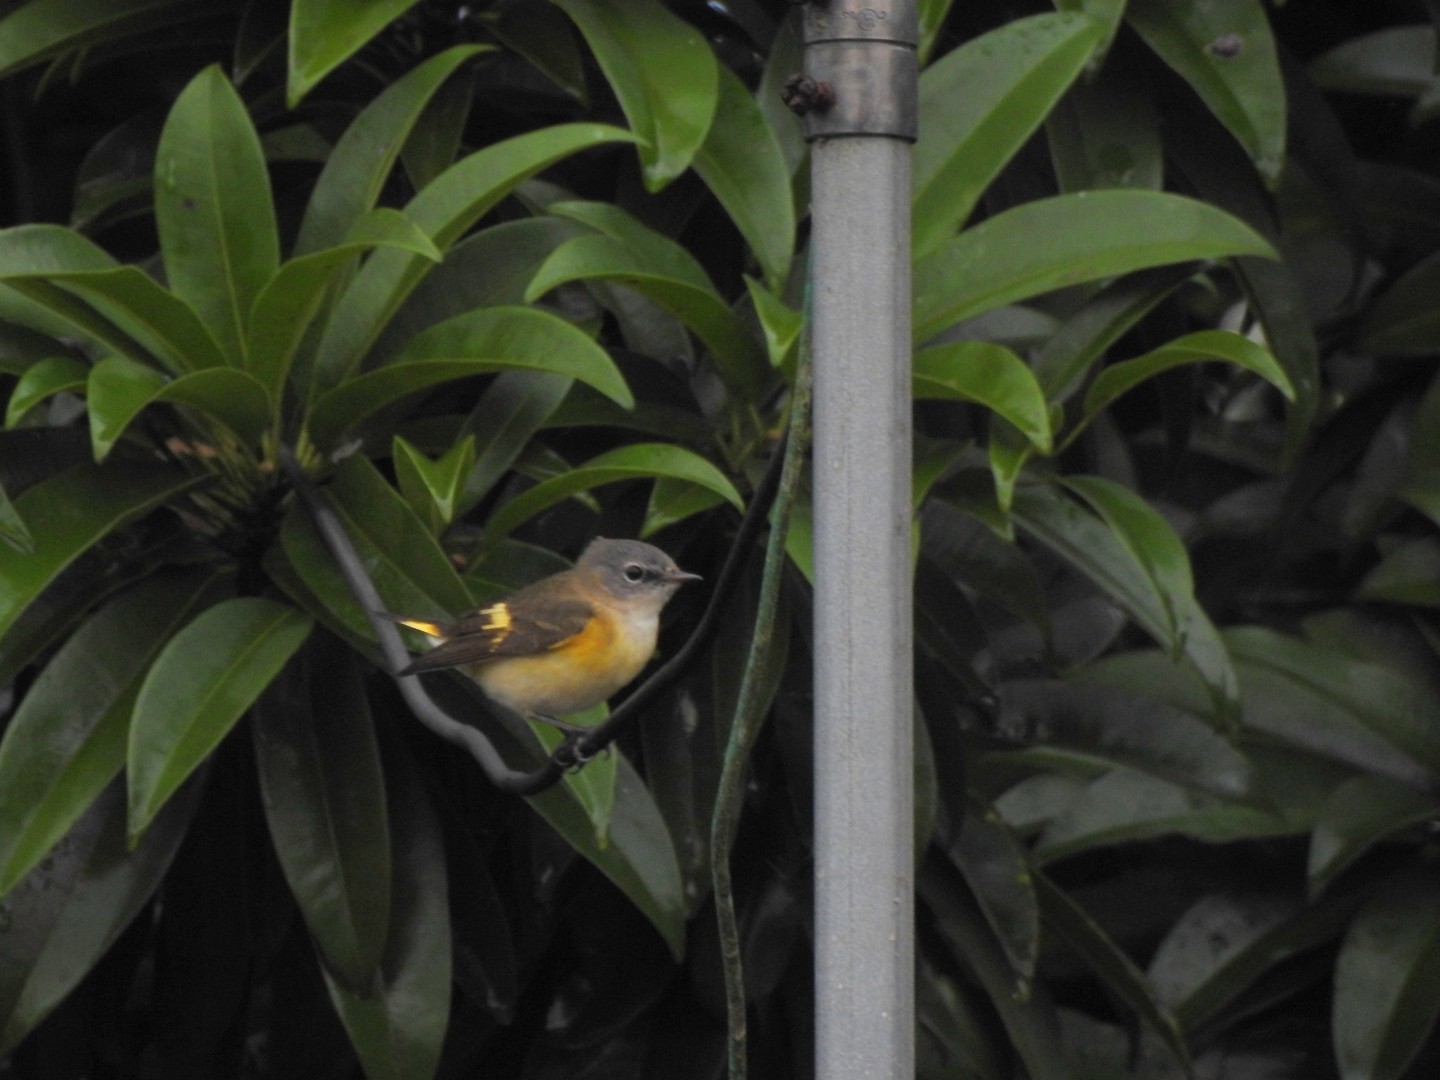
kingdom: Animalia
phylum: Chordata
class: Aves
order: Passeriformes
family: Parulidae
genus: Setophaga
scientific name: Setophaga ruticilla
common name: American redstart
